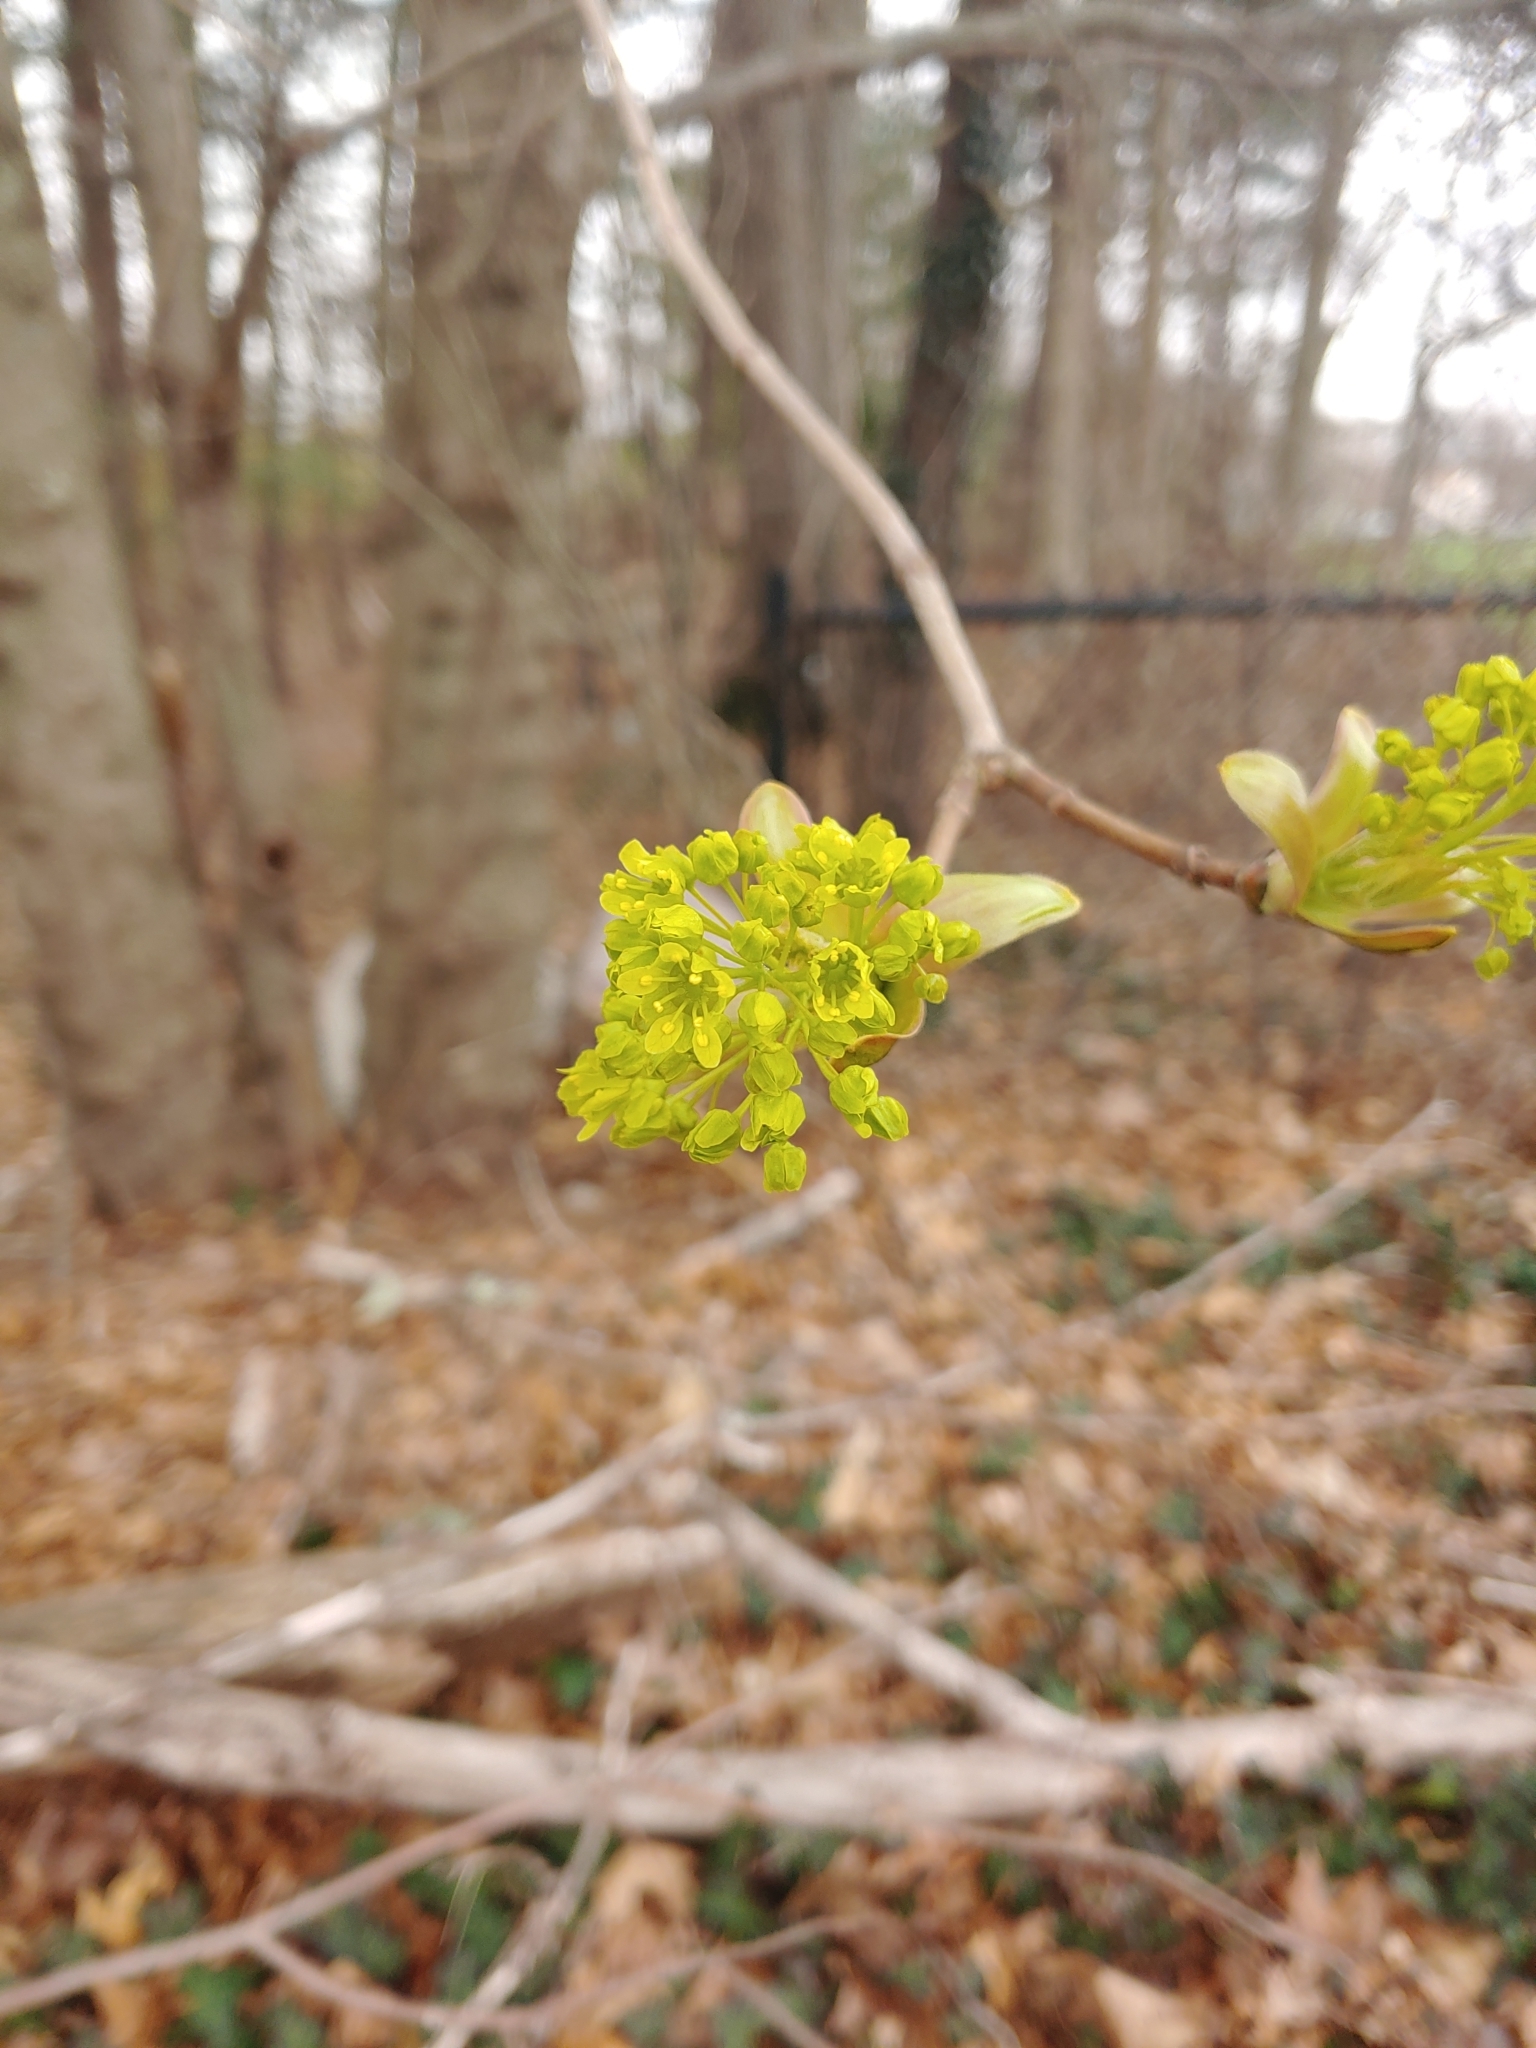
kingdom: Plantae
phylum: Tracheophyta
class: Magnoliopsida
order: Sapindales
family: Sapindaceae
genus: Acer
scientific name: Acer platanoides
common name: Norway maple
